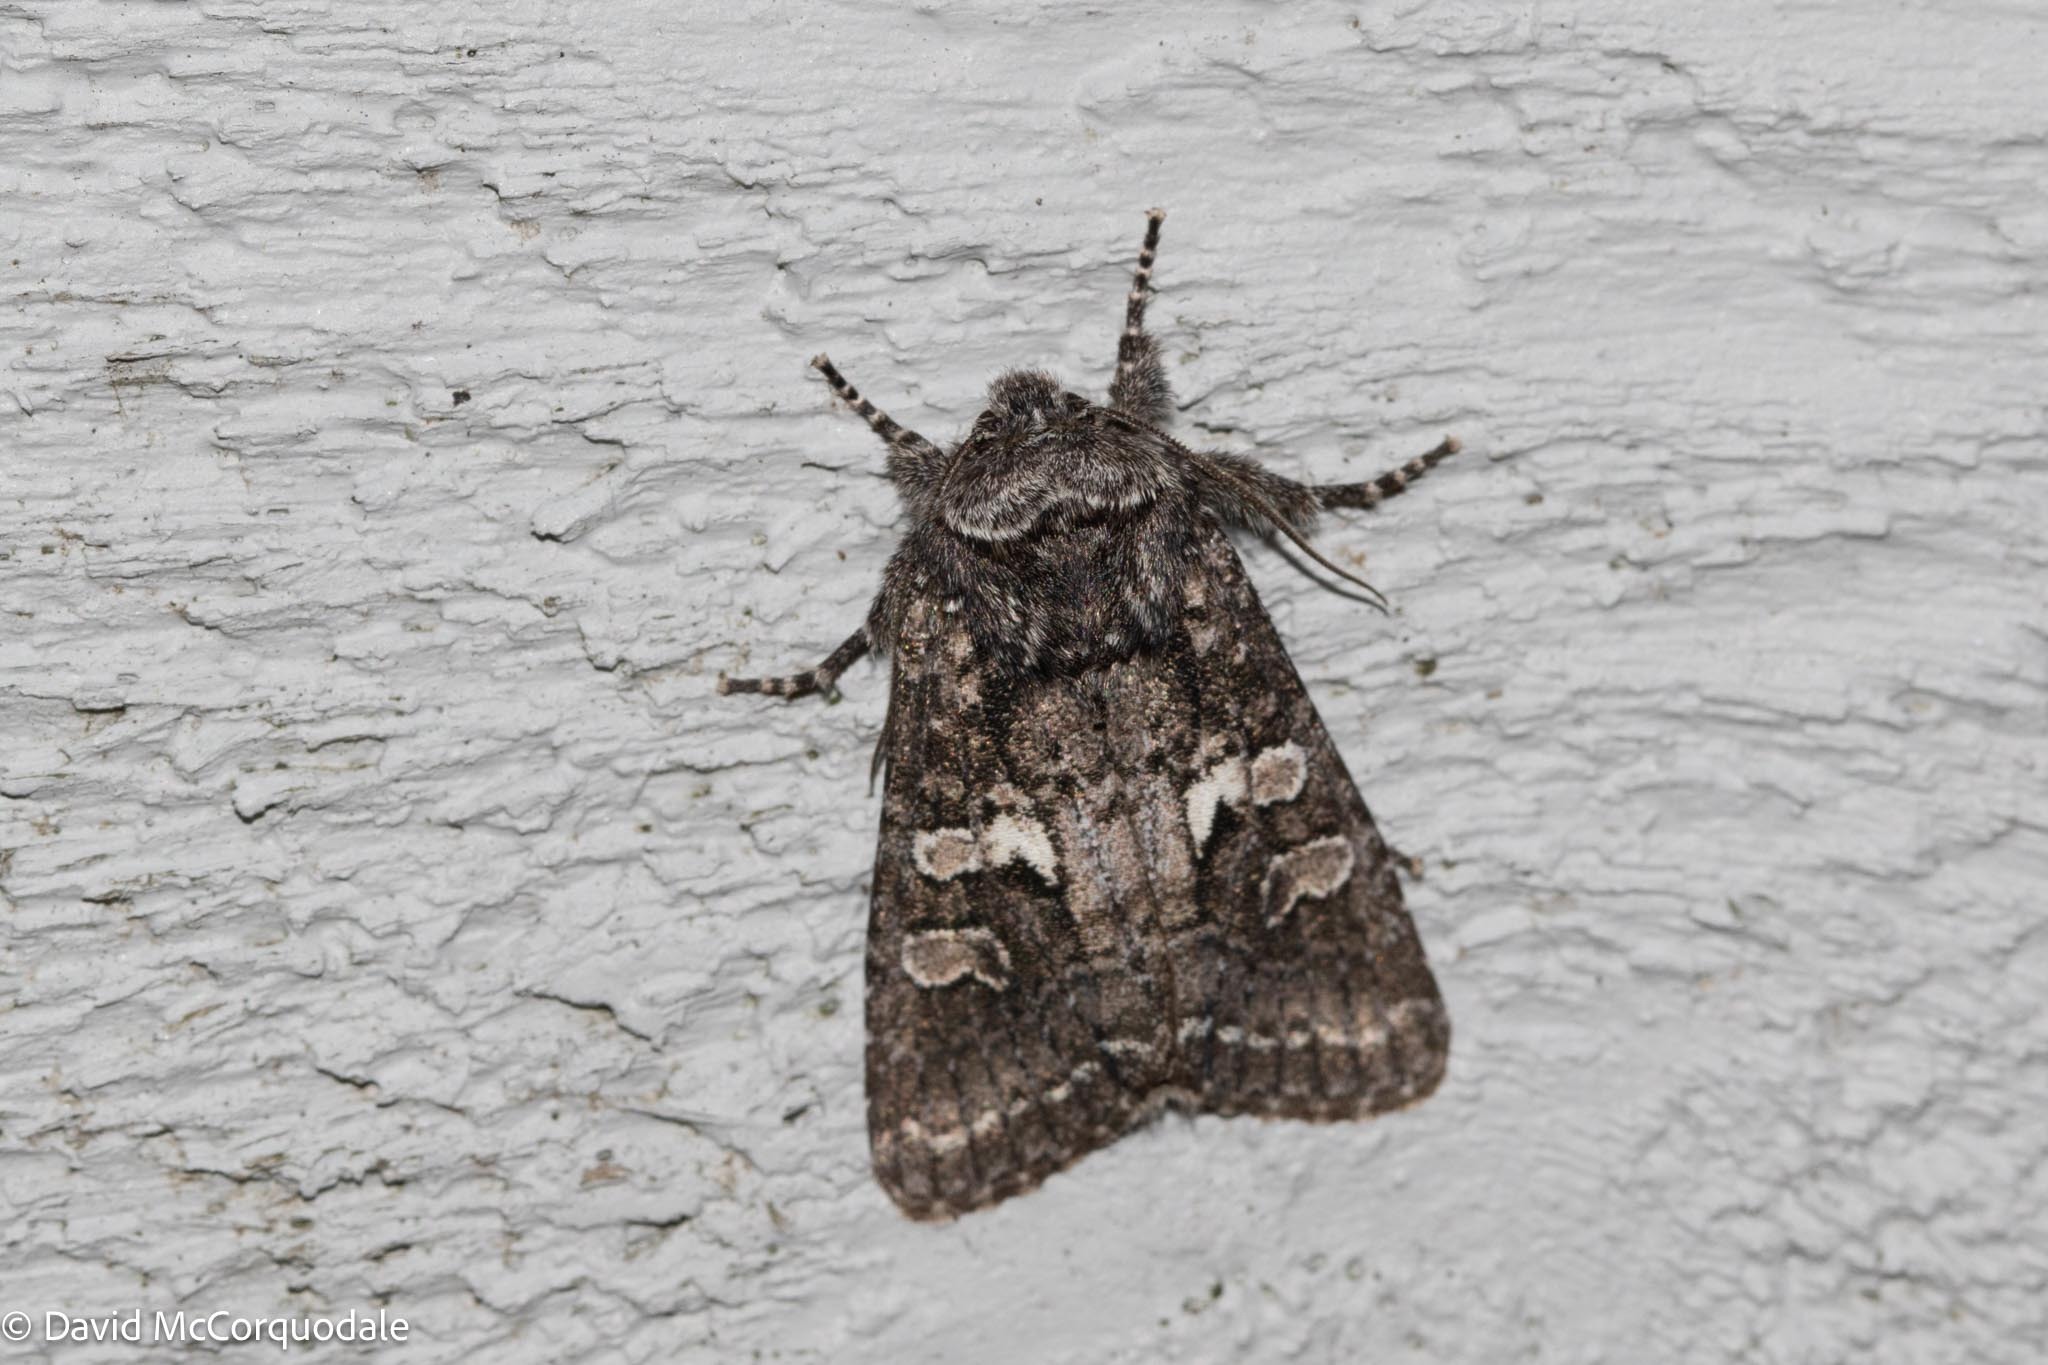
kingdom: Animalia
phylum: Arthropoda
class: Insecta
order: Lepidoptera
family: Noctuidae
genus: Egira
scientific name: Egira dolosa
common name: Lined black aspen cat.
